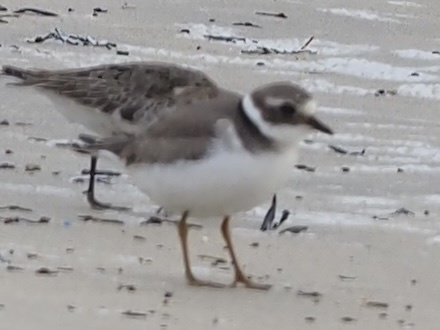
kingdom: Animalia
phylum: Chordata
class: Aves
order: Charadriiformes
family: Charadriidae
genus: Charadrius
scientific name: Charadrius hiaticula
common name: Common ringed plover
